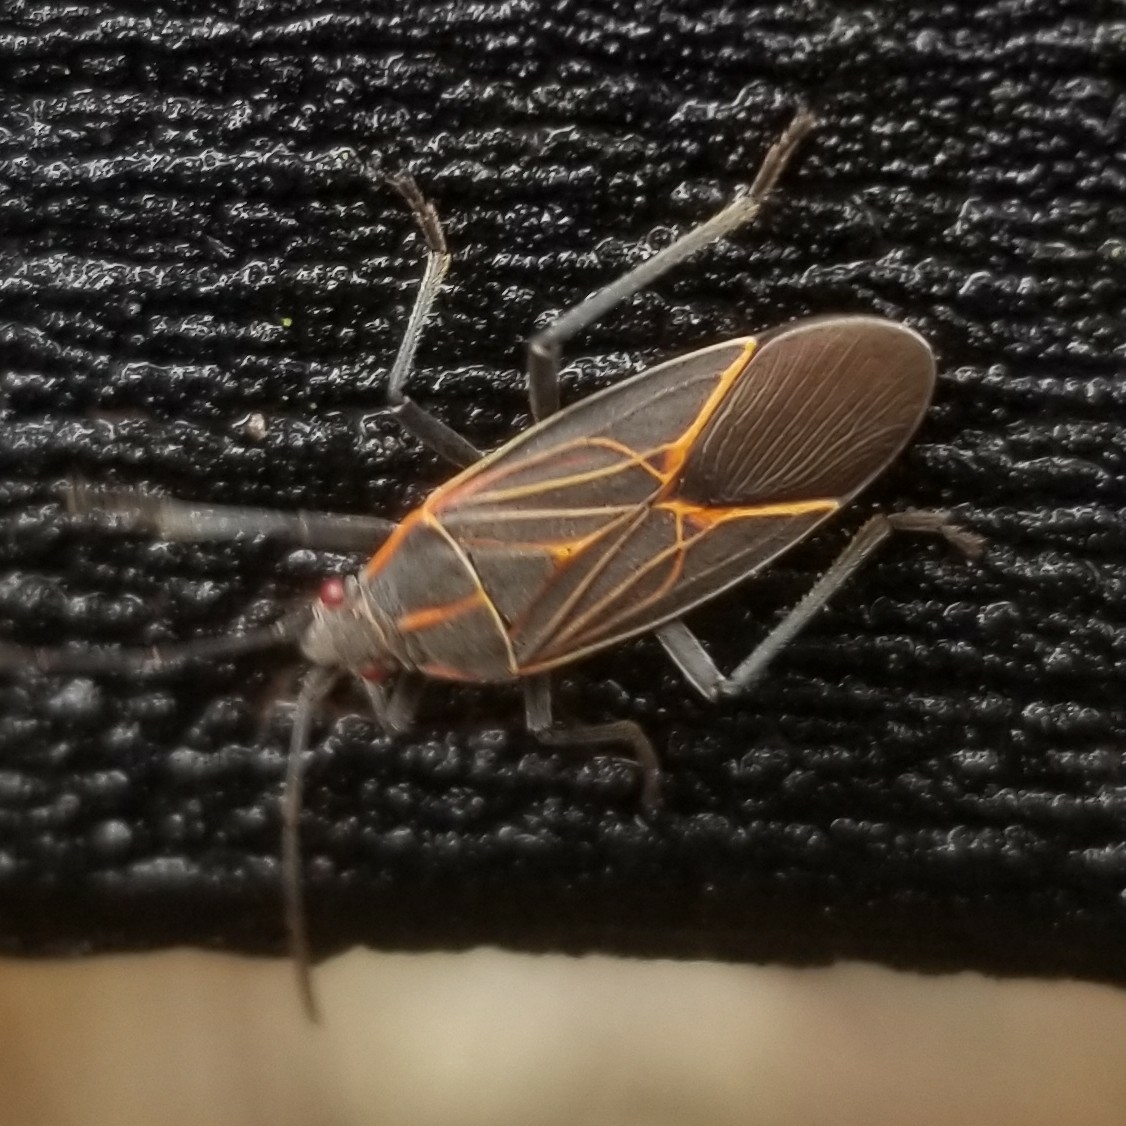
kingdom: Animalia
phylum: Arthropoda
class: Insecta
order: Hemiptera
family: Rhopalidae
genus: Boisea
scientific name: Boisea rubrolineata
